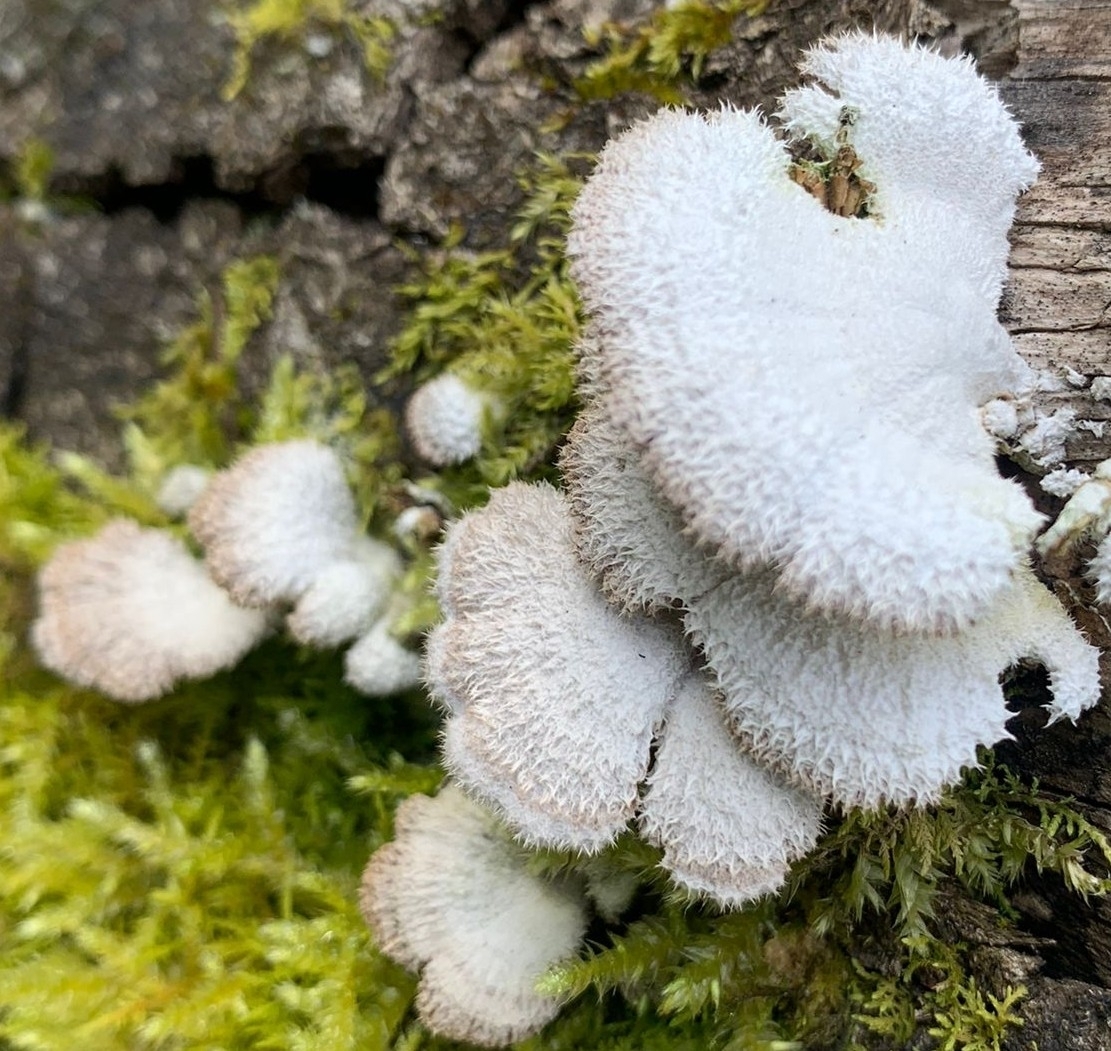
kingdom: Fungi
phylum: Basidiomycota
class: Agaricomycetes
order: Agaricales
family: Schizophyllaceae
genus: Schizophyllum
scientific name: Schizophyllum commune
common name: Common porecrust
